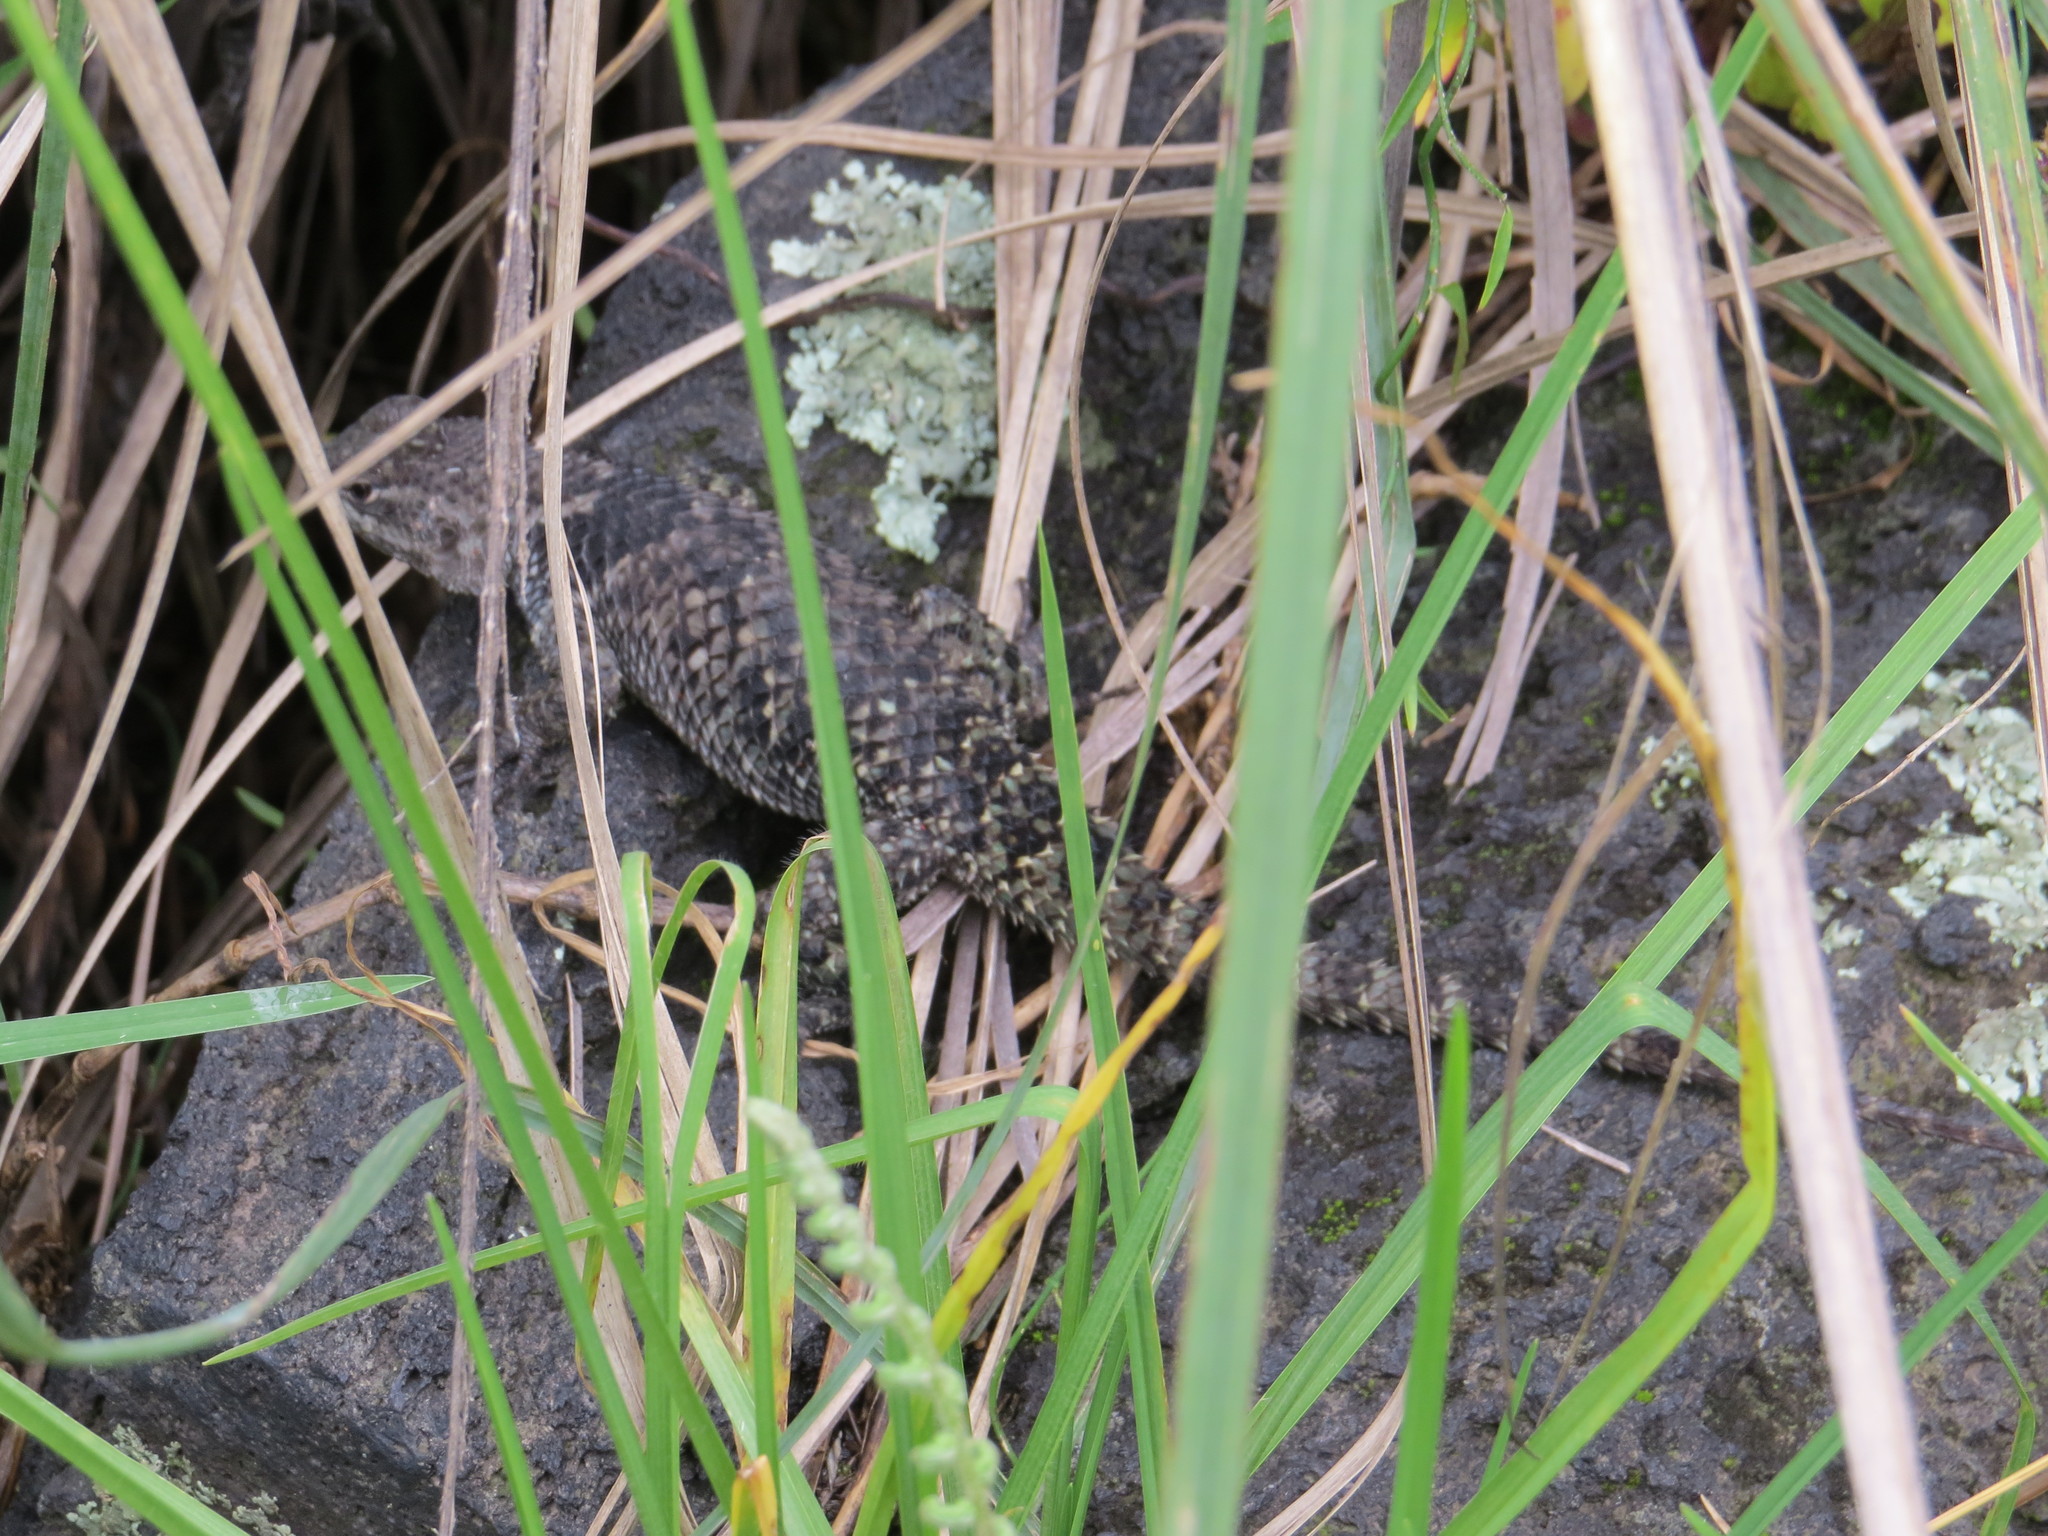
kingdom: Animalia
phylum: Chordata
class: Squamata
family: Phrynosomatidae
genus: Sceloporus
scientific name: Sceloporus torquatus
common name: Central plateau torquate lizard [melanogaster]
